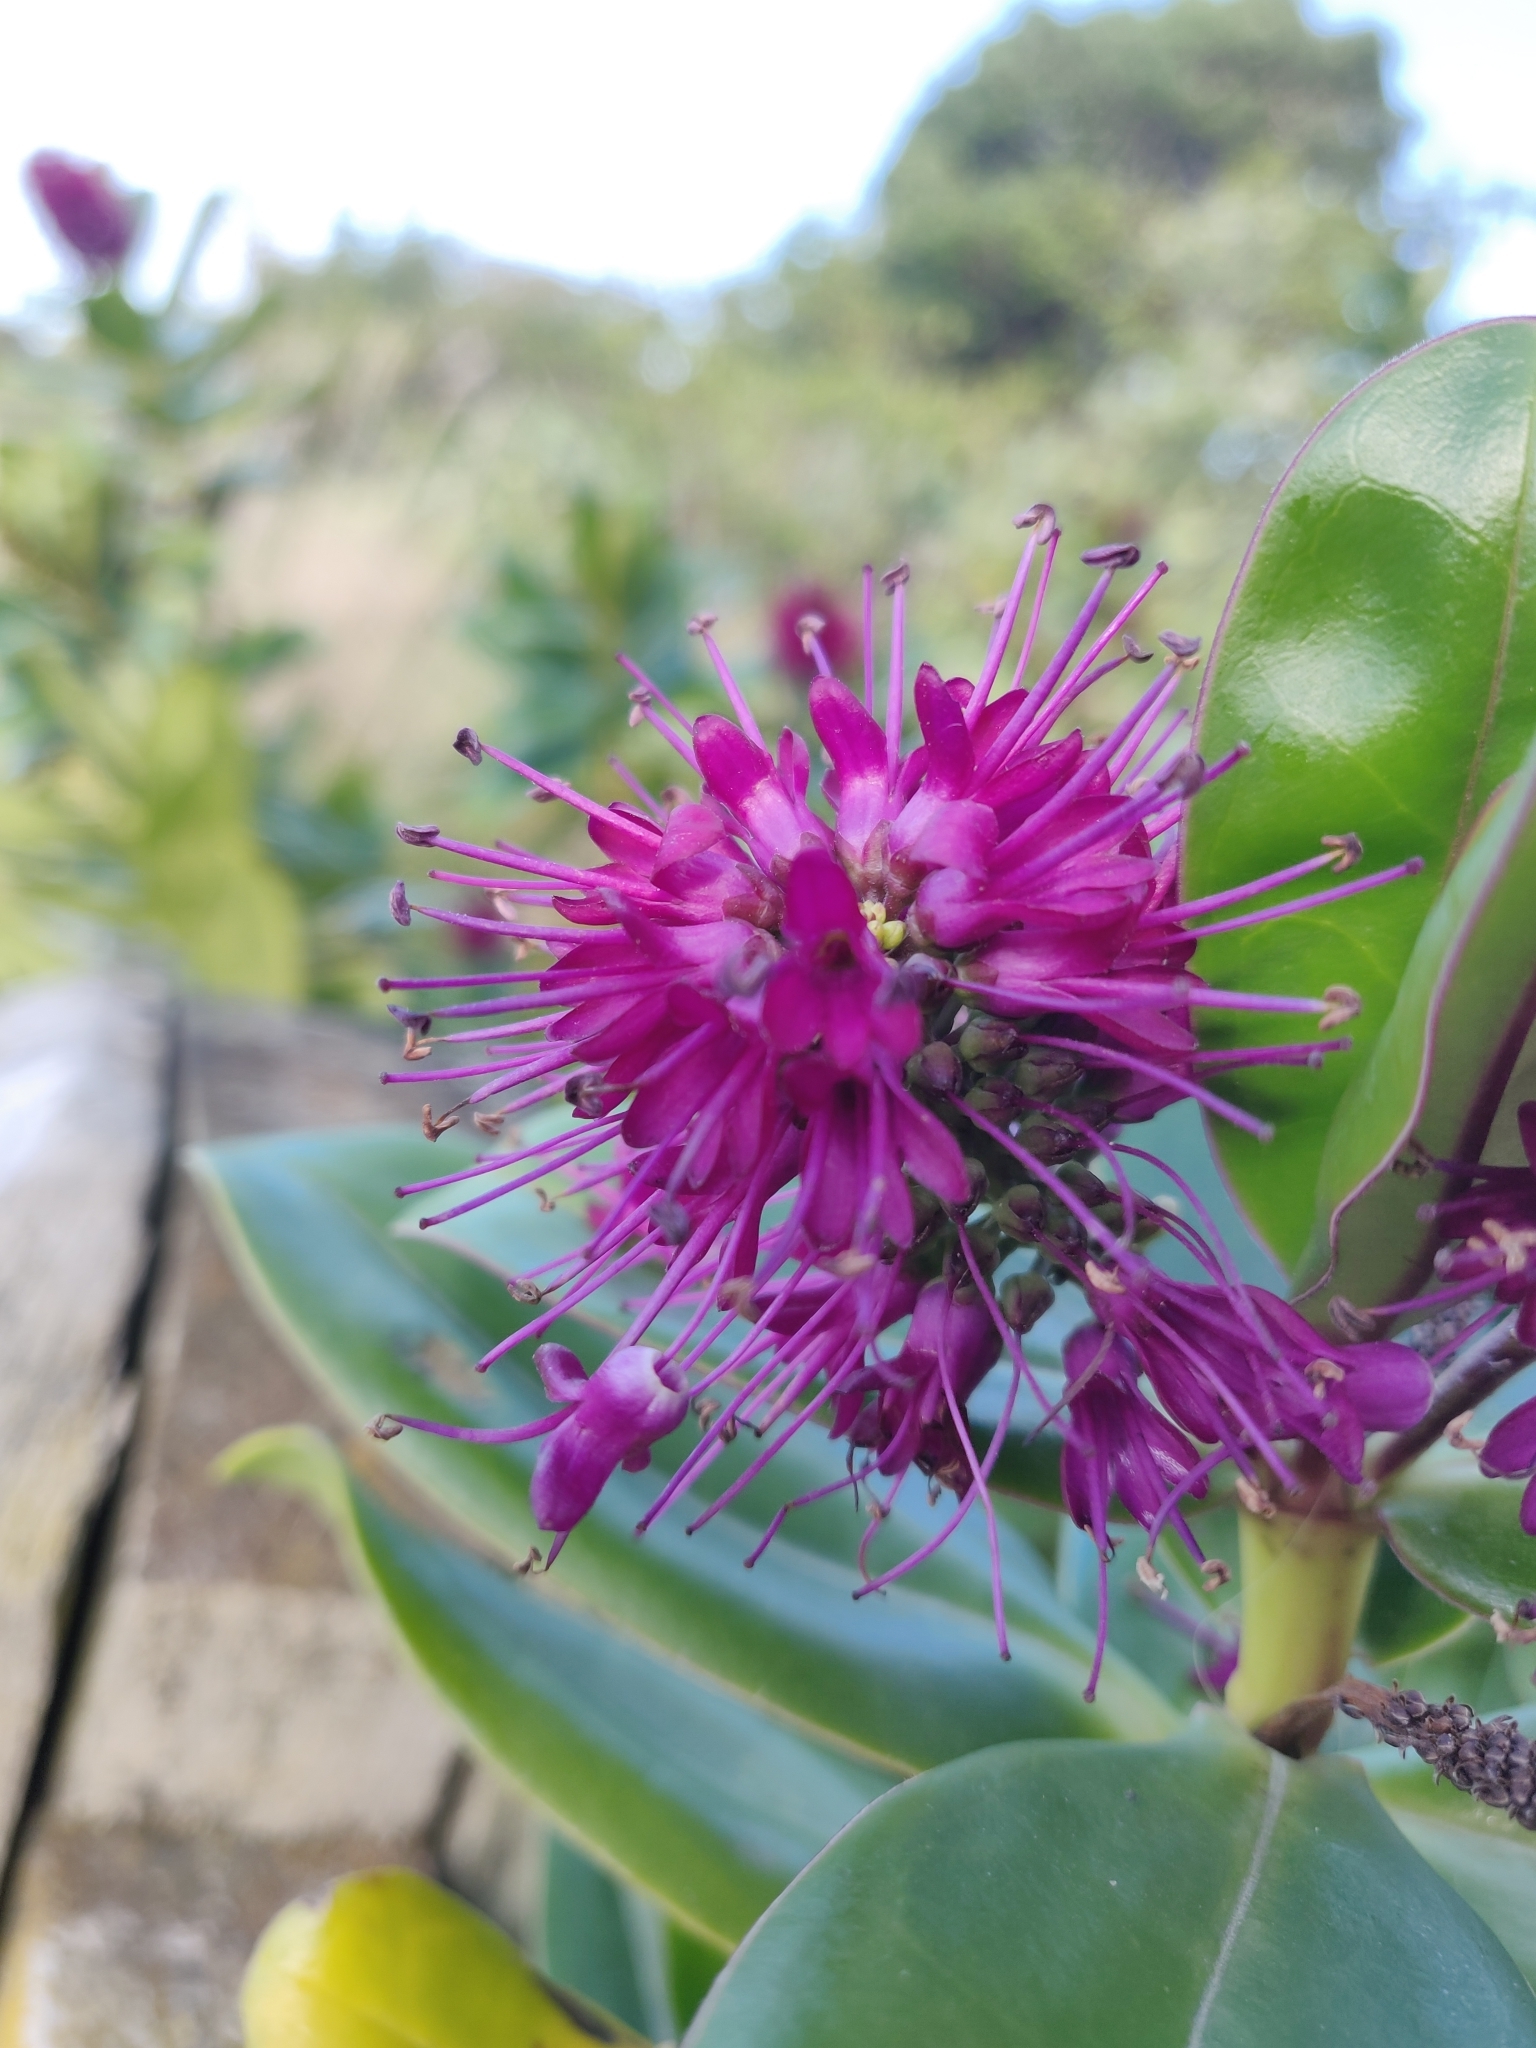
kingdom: Plantae
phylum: Tracheophyta
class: Magnoliopsida
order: Lamiales
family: Plantaginaceae
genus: Veronica
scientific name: Veronica speciosa
